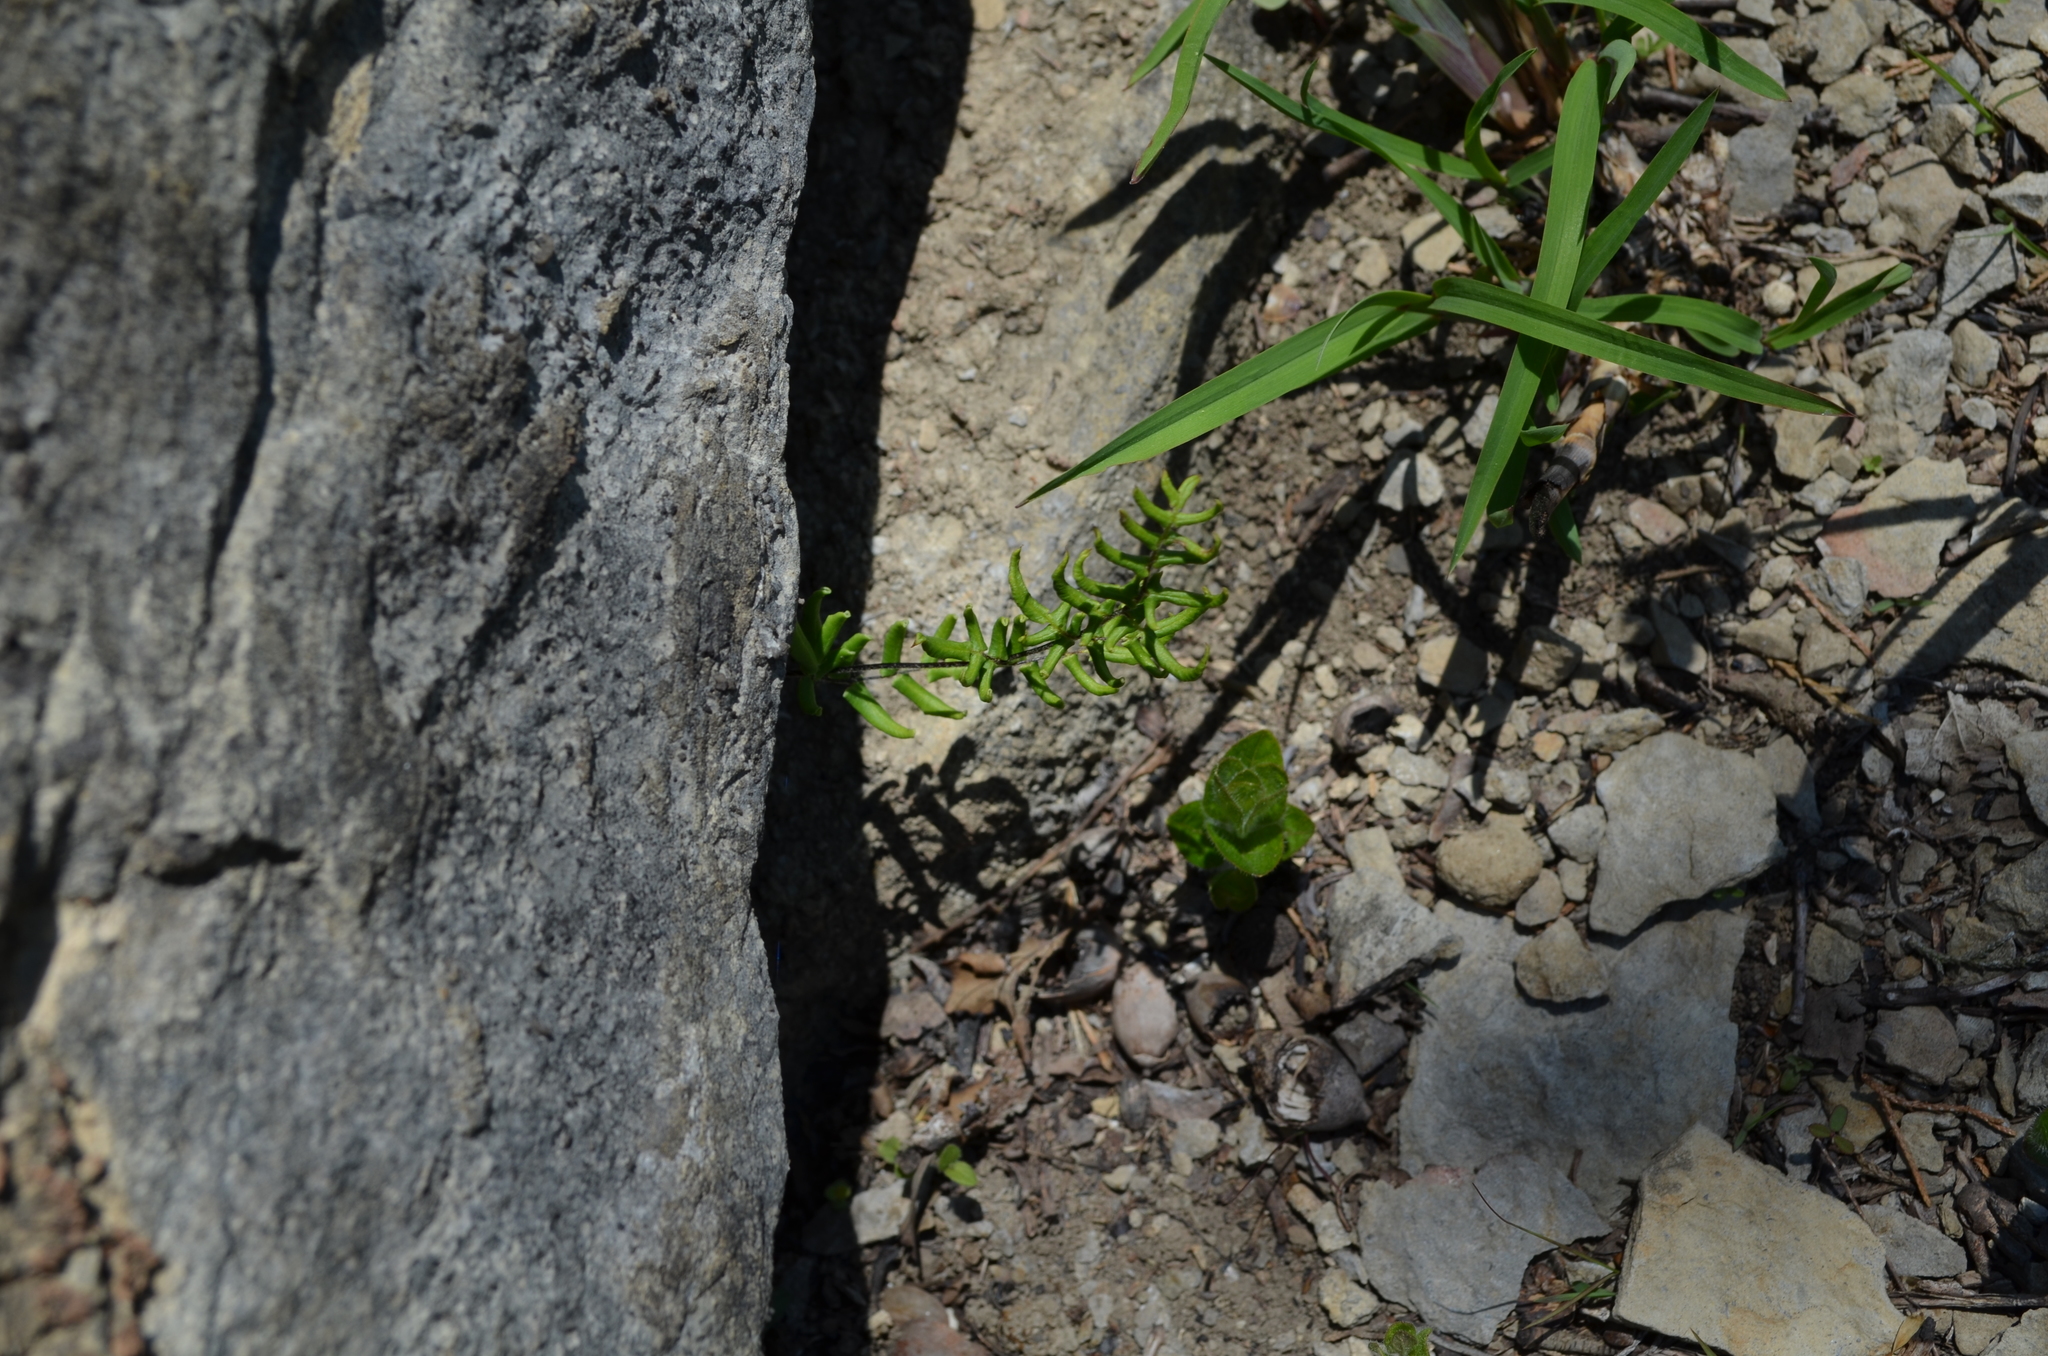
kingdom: Plantae
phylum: Tracheophyta
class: Polypodiopsida
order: Polypodiales
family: Pteridaceae
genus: Pellaea
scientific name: Pellaea atropurpurea
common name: Hairy cliffbrake
